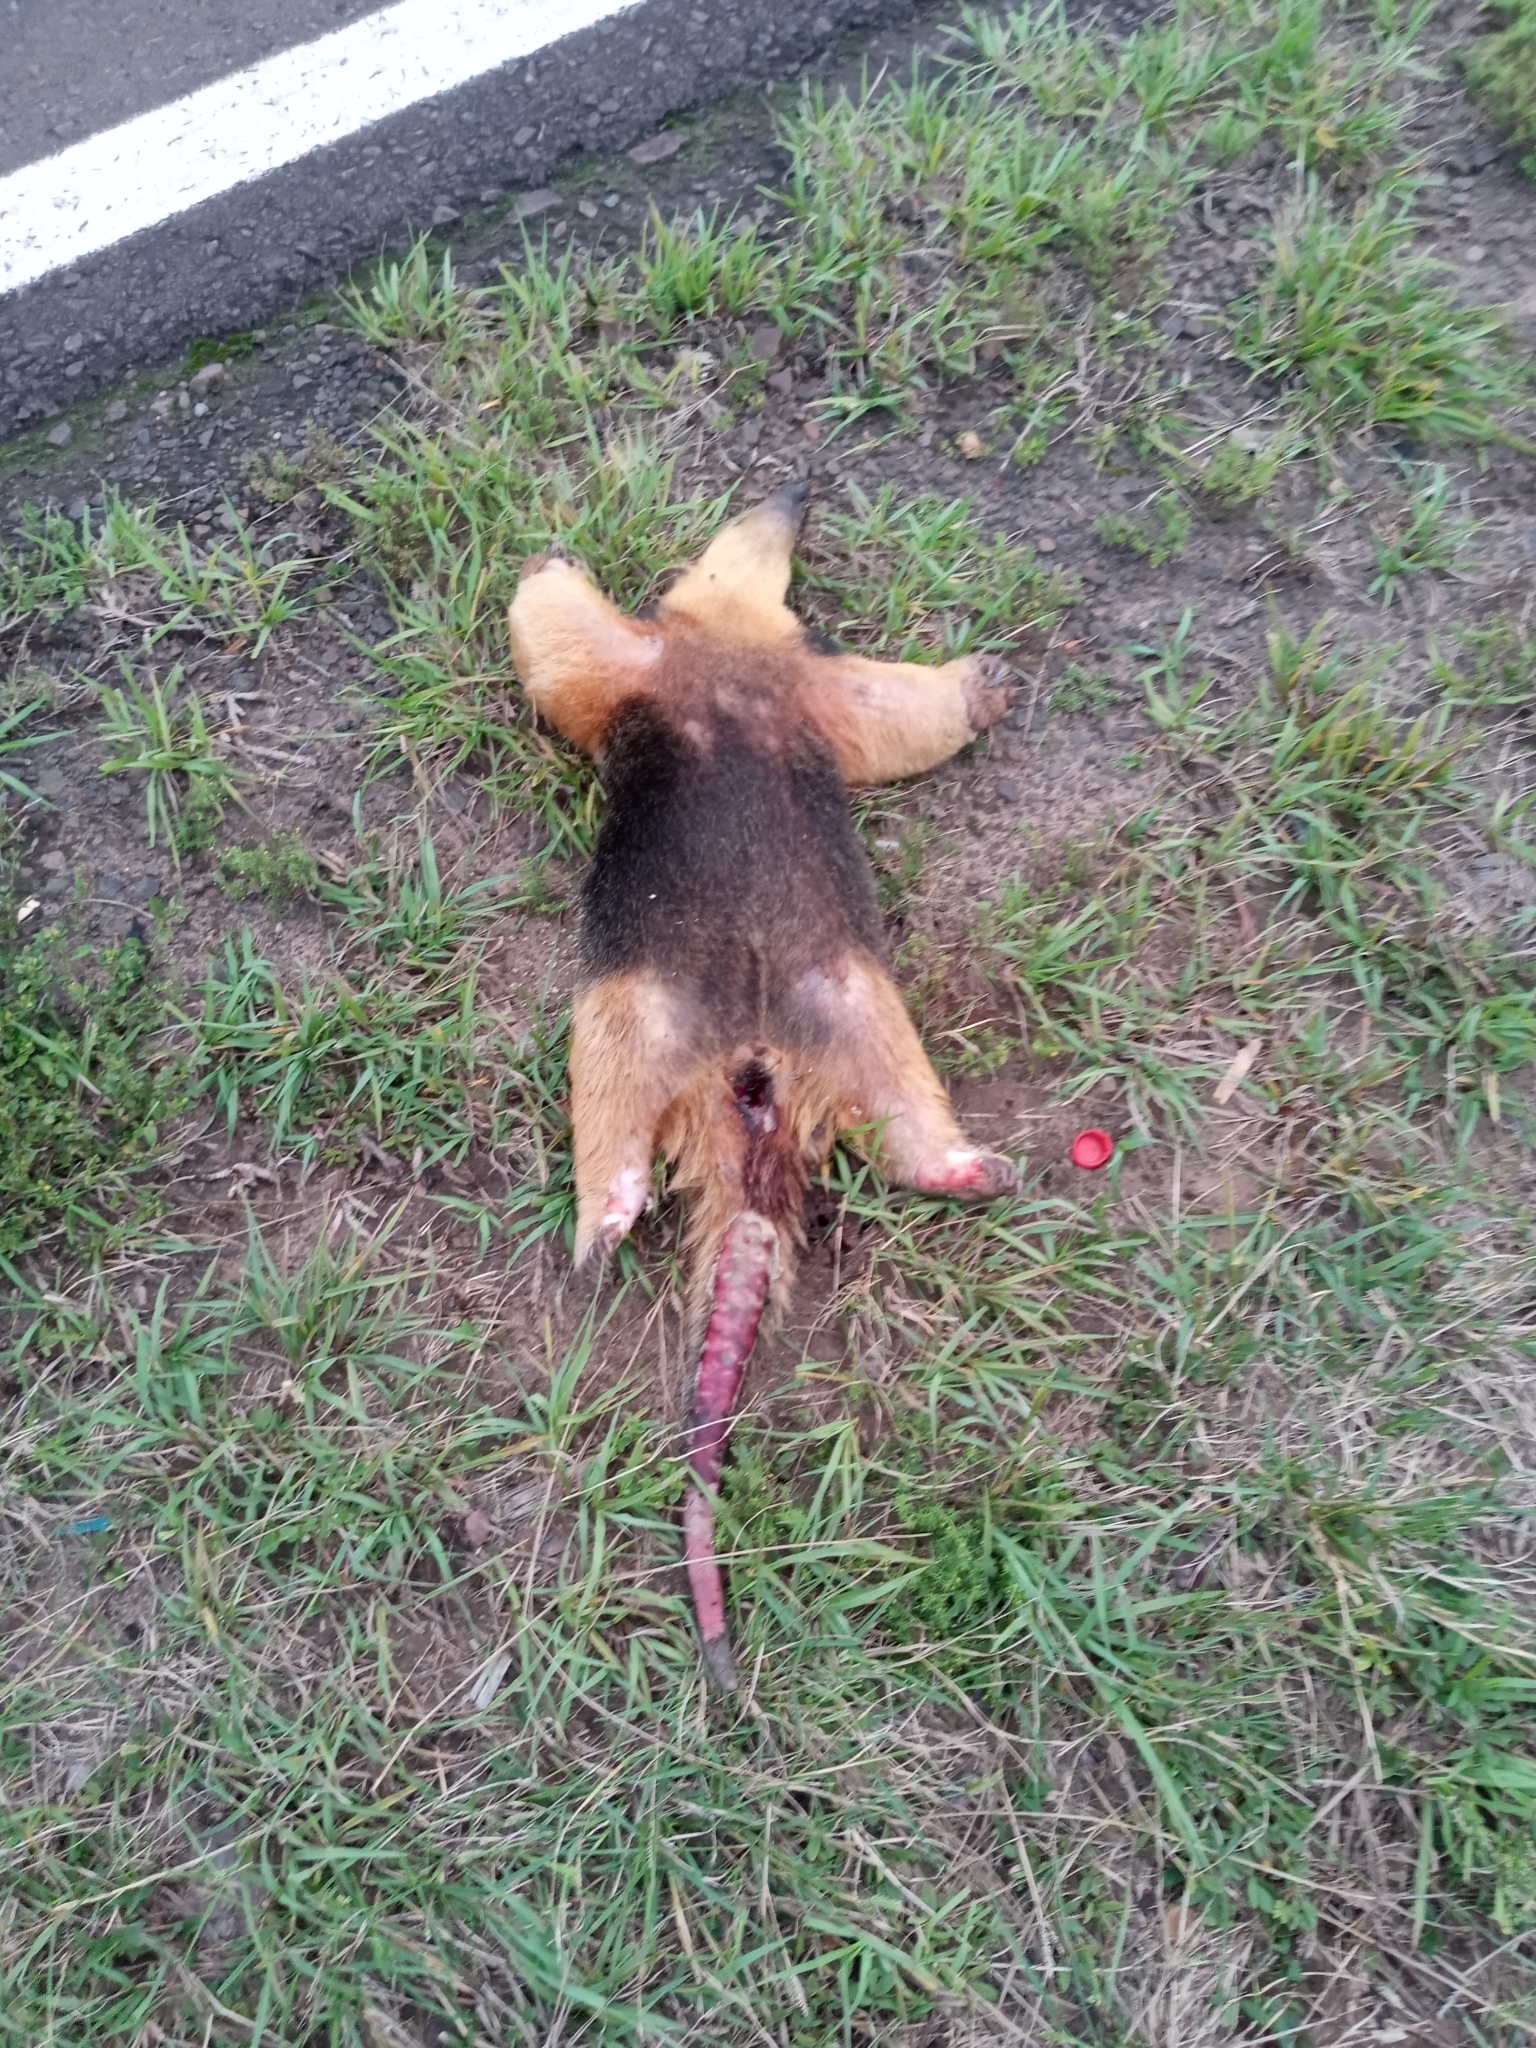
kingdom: Animalia
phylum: Chordata
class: Mammalia
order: Pilosa
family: Myrmecophagidae
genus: Tamandua
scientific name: Tamandua tetradactyla
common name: Southern tamandua
